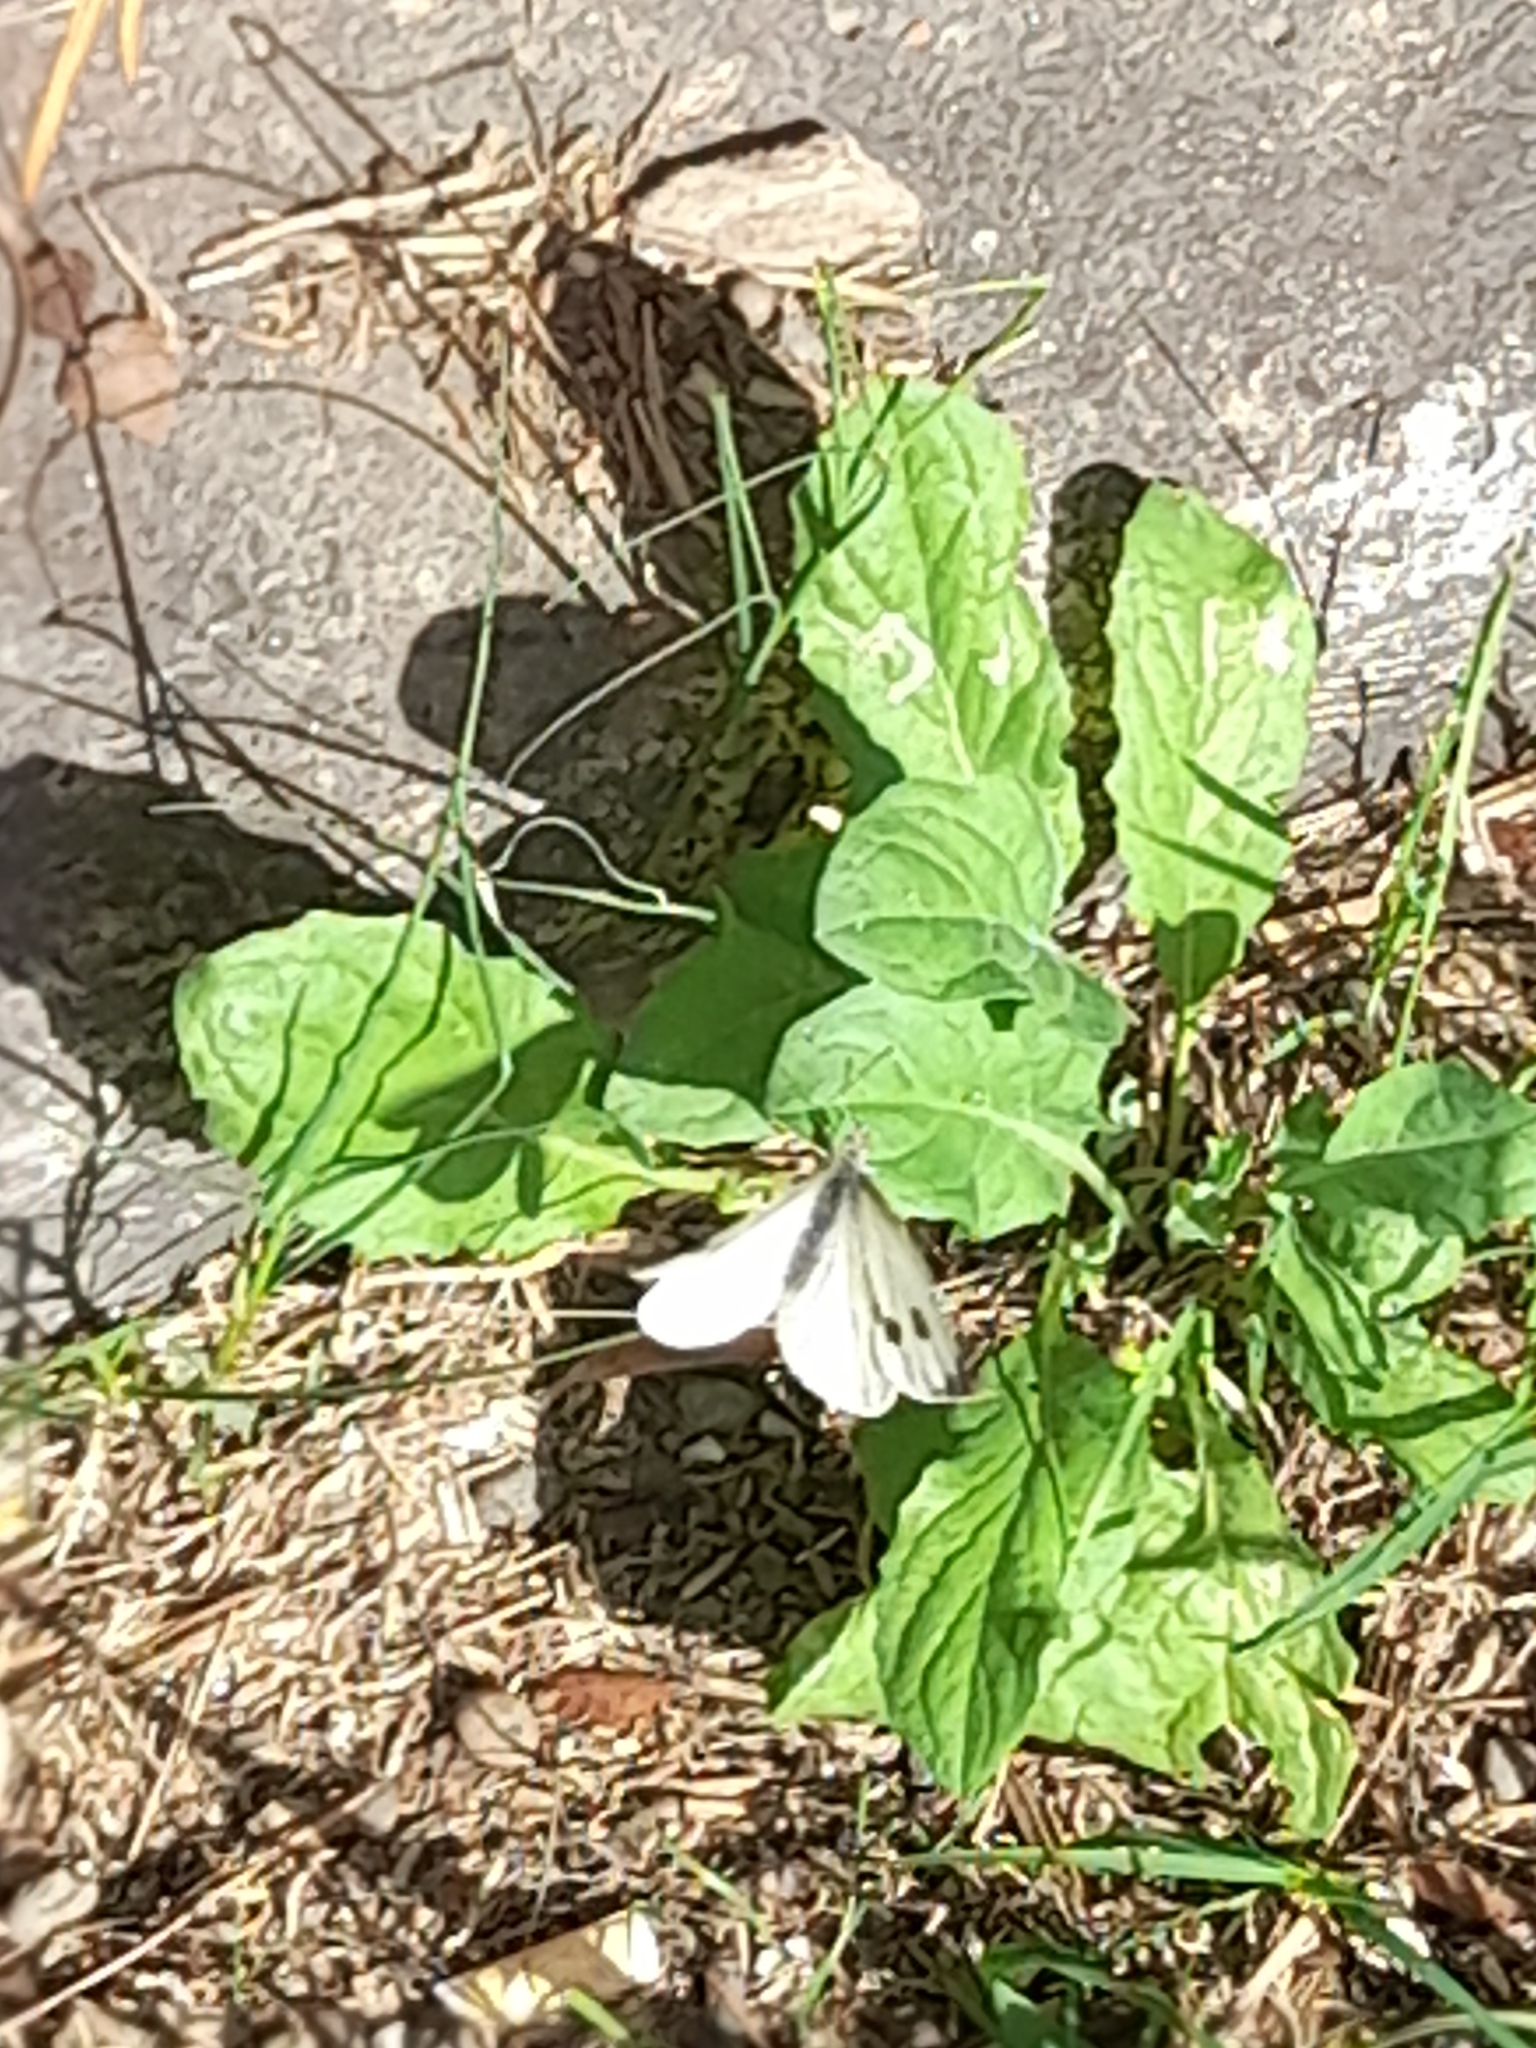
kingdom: Animalia
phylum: Arthropoda
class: Insecta
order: Lepidoptera
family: Pieridae
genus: Pieris
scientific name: Pieris brassicae
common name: Large white
